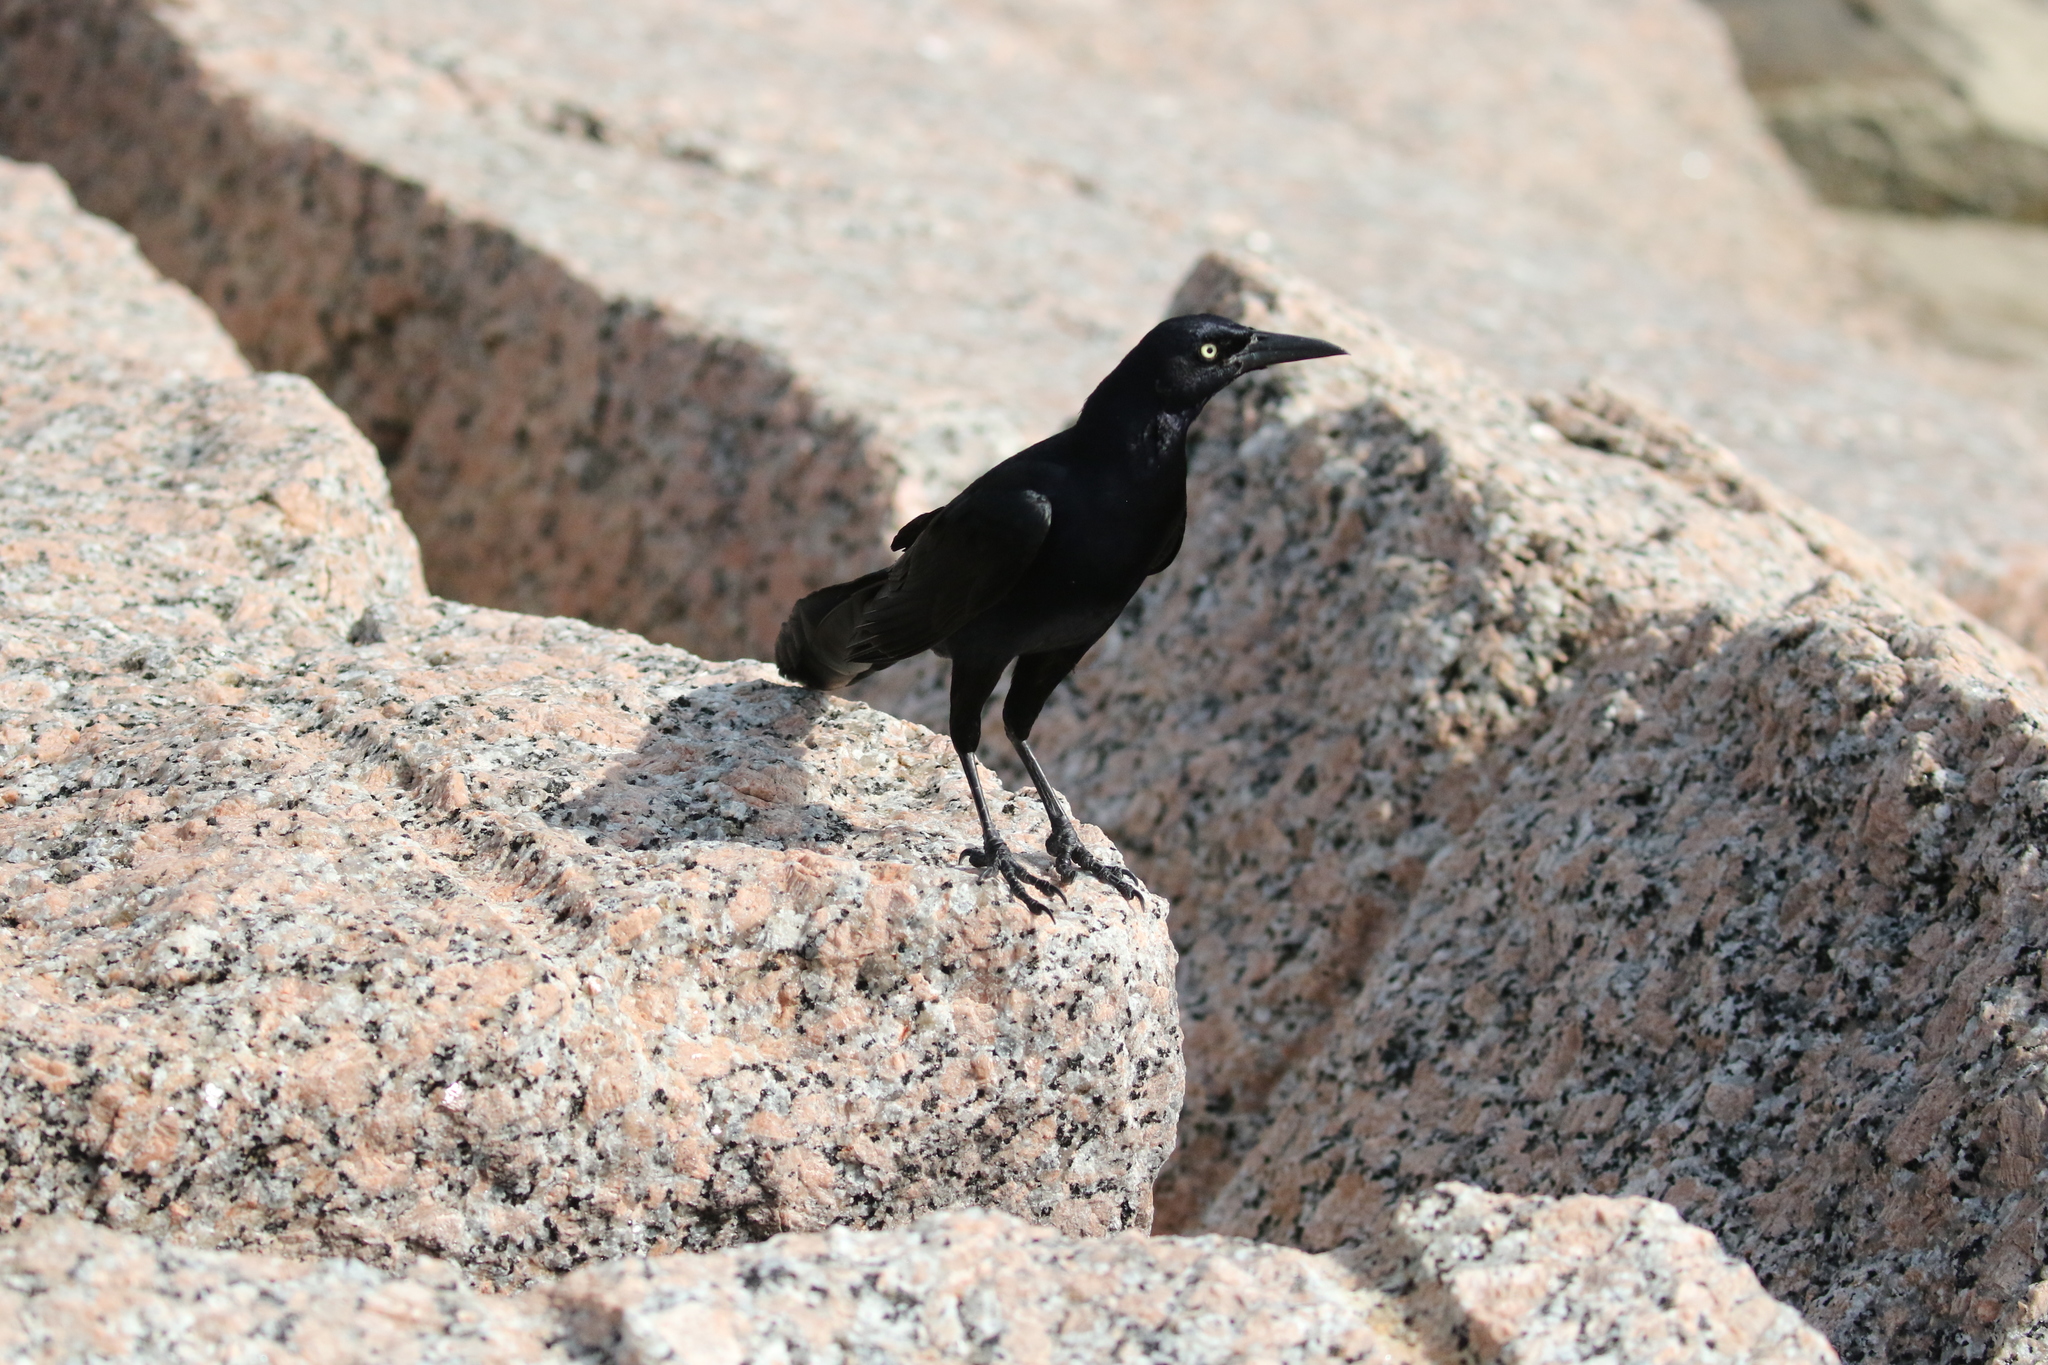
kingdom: Animalia
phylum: Chordata
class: Aves
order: Passeriformes
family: Icteridae
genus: Quiscalus
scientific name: Quiscalus mexicanus
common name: Great-tailed grackle
